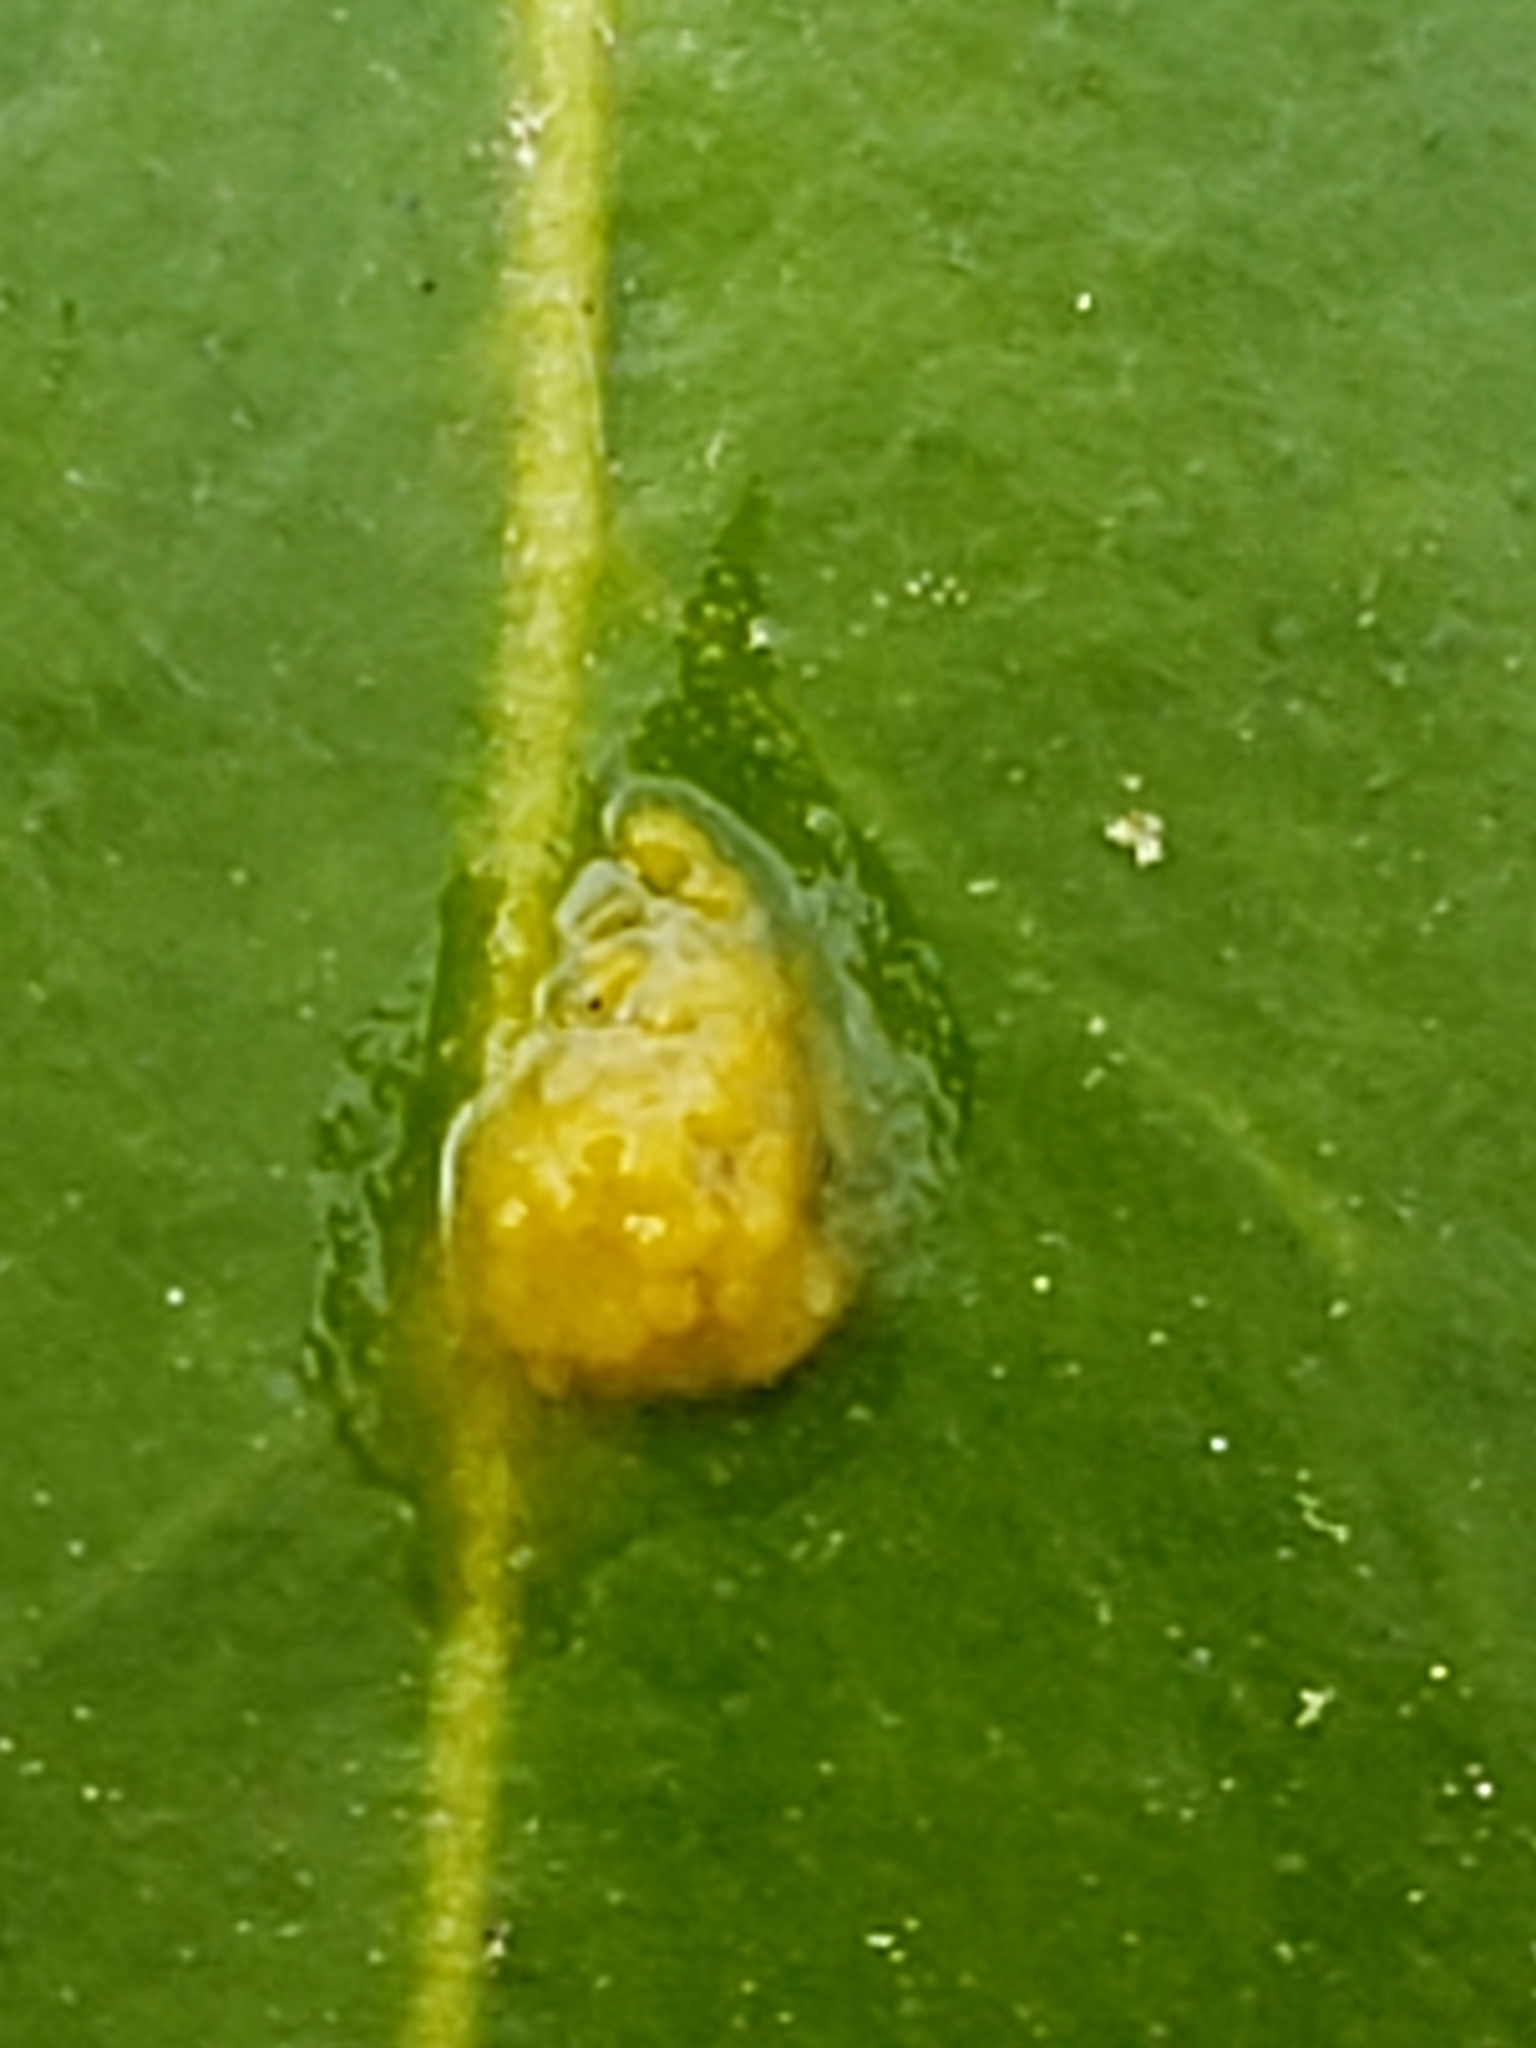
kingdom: Plantae
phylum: Tracheophyta
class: Magnoliopsida
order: Ericales
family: Ericaceae
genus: Kalmia
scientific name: Kalmia latifolia
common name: Mountain-laurel
